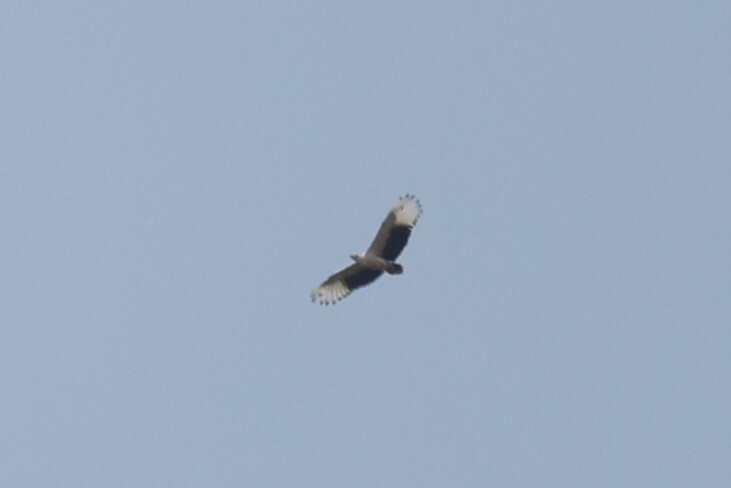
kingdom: Animalia
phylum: Chordata
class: Aves
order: Accipitriformes
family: Accipitridae
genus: Gypohierax
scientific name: Gypohierax angolensis
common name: Palm-nut vulture
